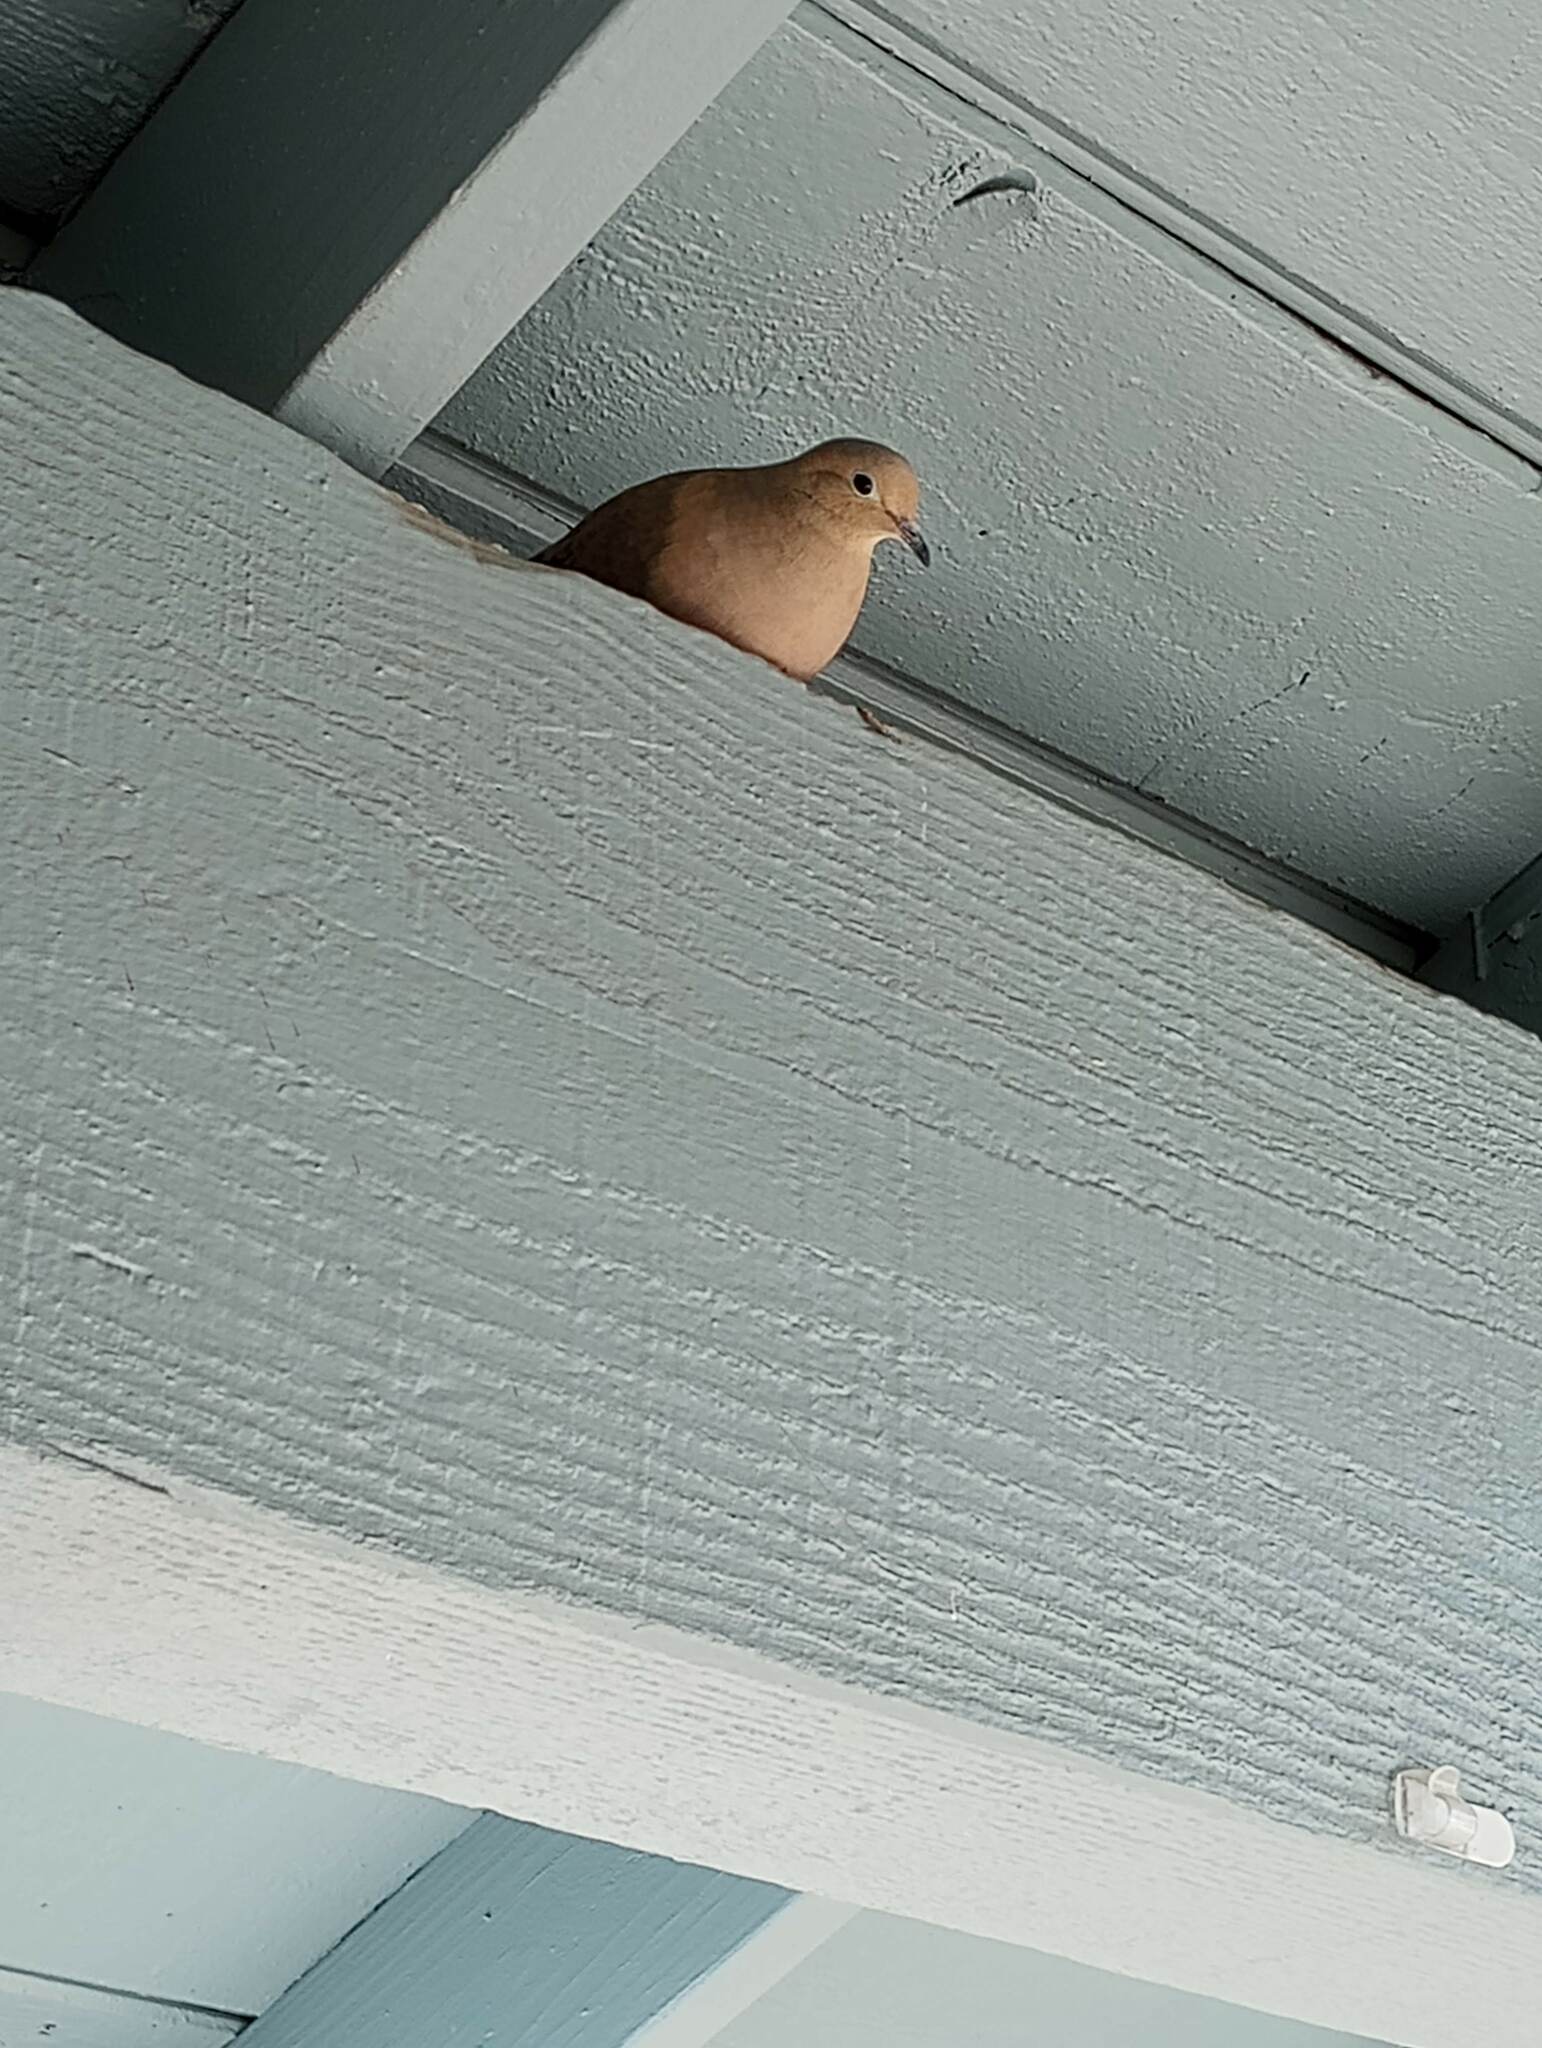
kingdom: Animalia
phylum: Chordata
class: Aves
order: Columbiformes
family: Columbidae
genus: Zenaida
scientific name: Zenaida macroura
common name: Mourning dove
